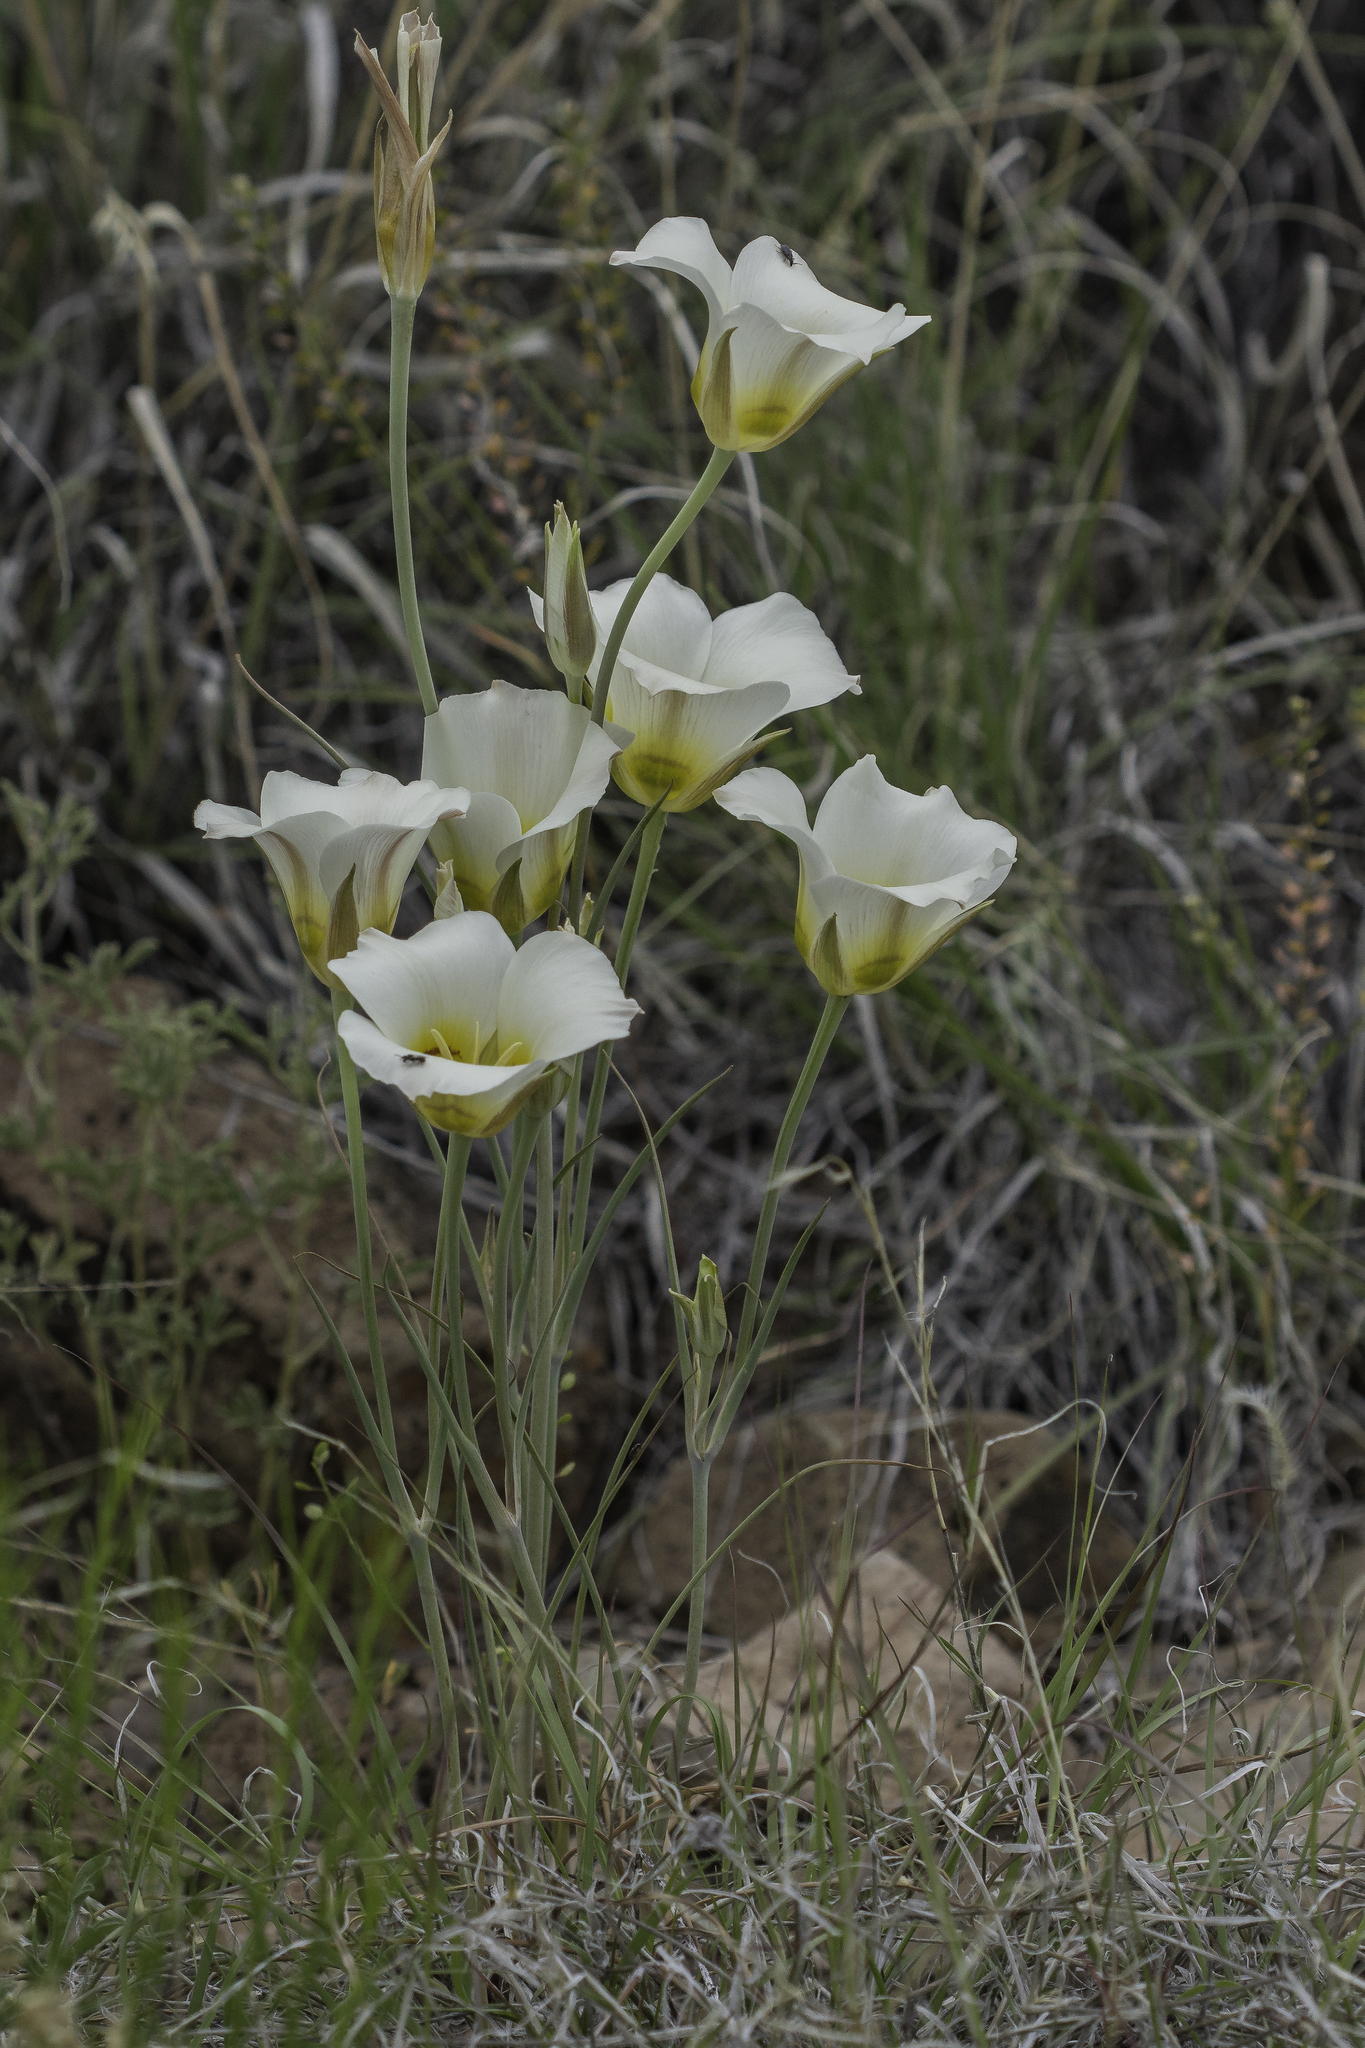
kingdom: Plantae
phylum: Tracheophyta
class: Liliopsida
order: Liliales
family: Liliaceae
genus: Calochortus
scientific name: Calochortus nuttallii
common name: Sego-lily
